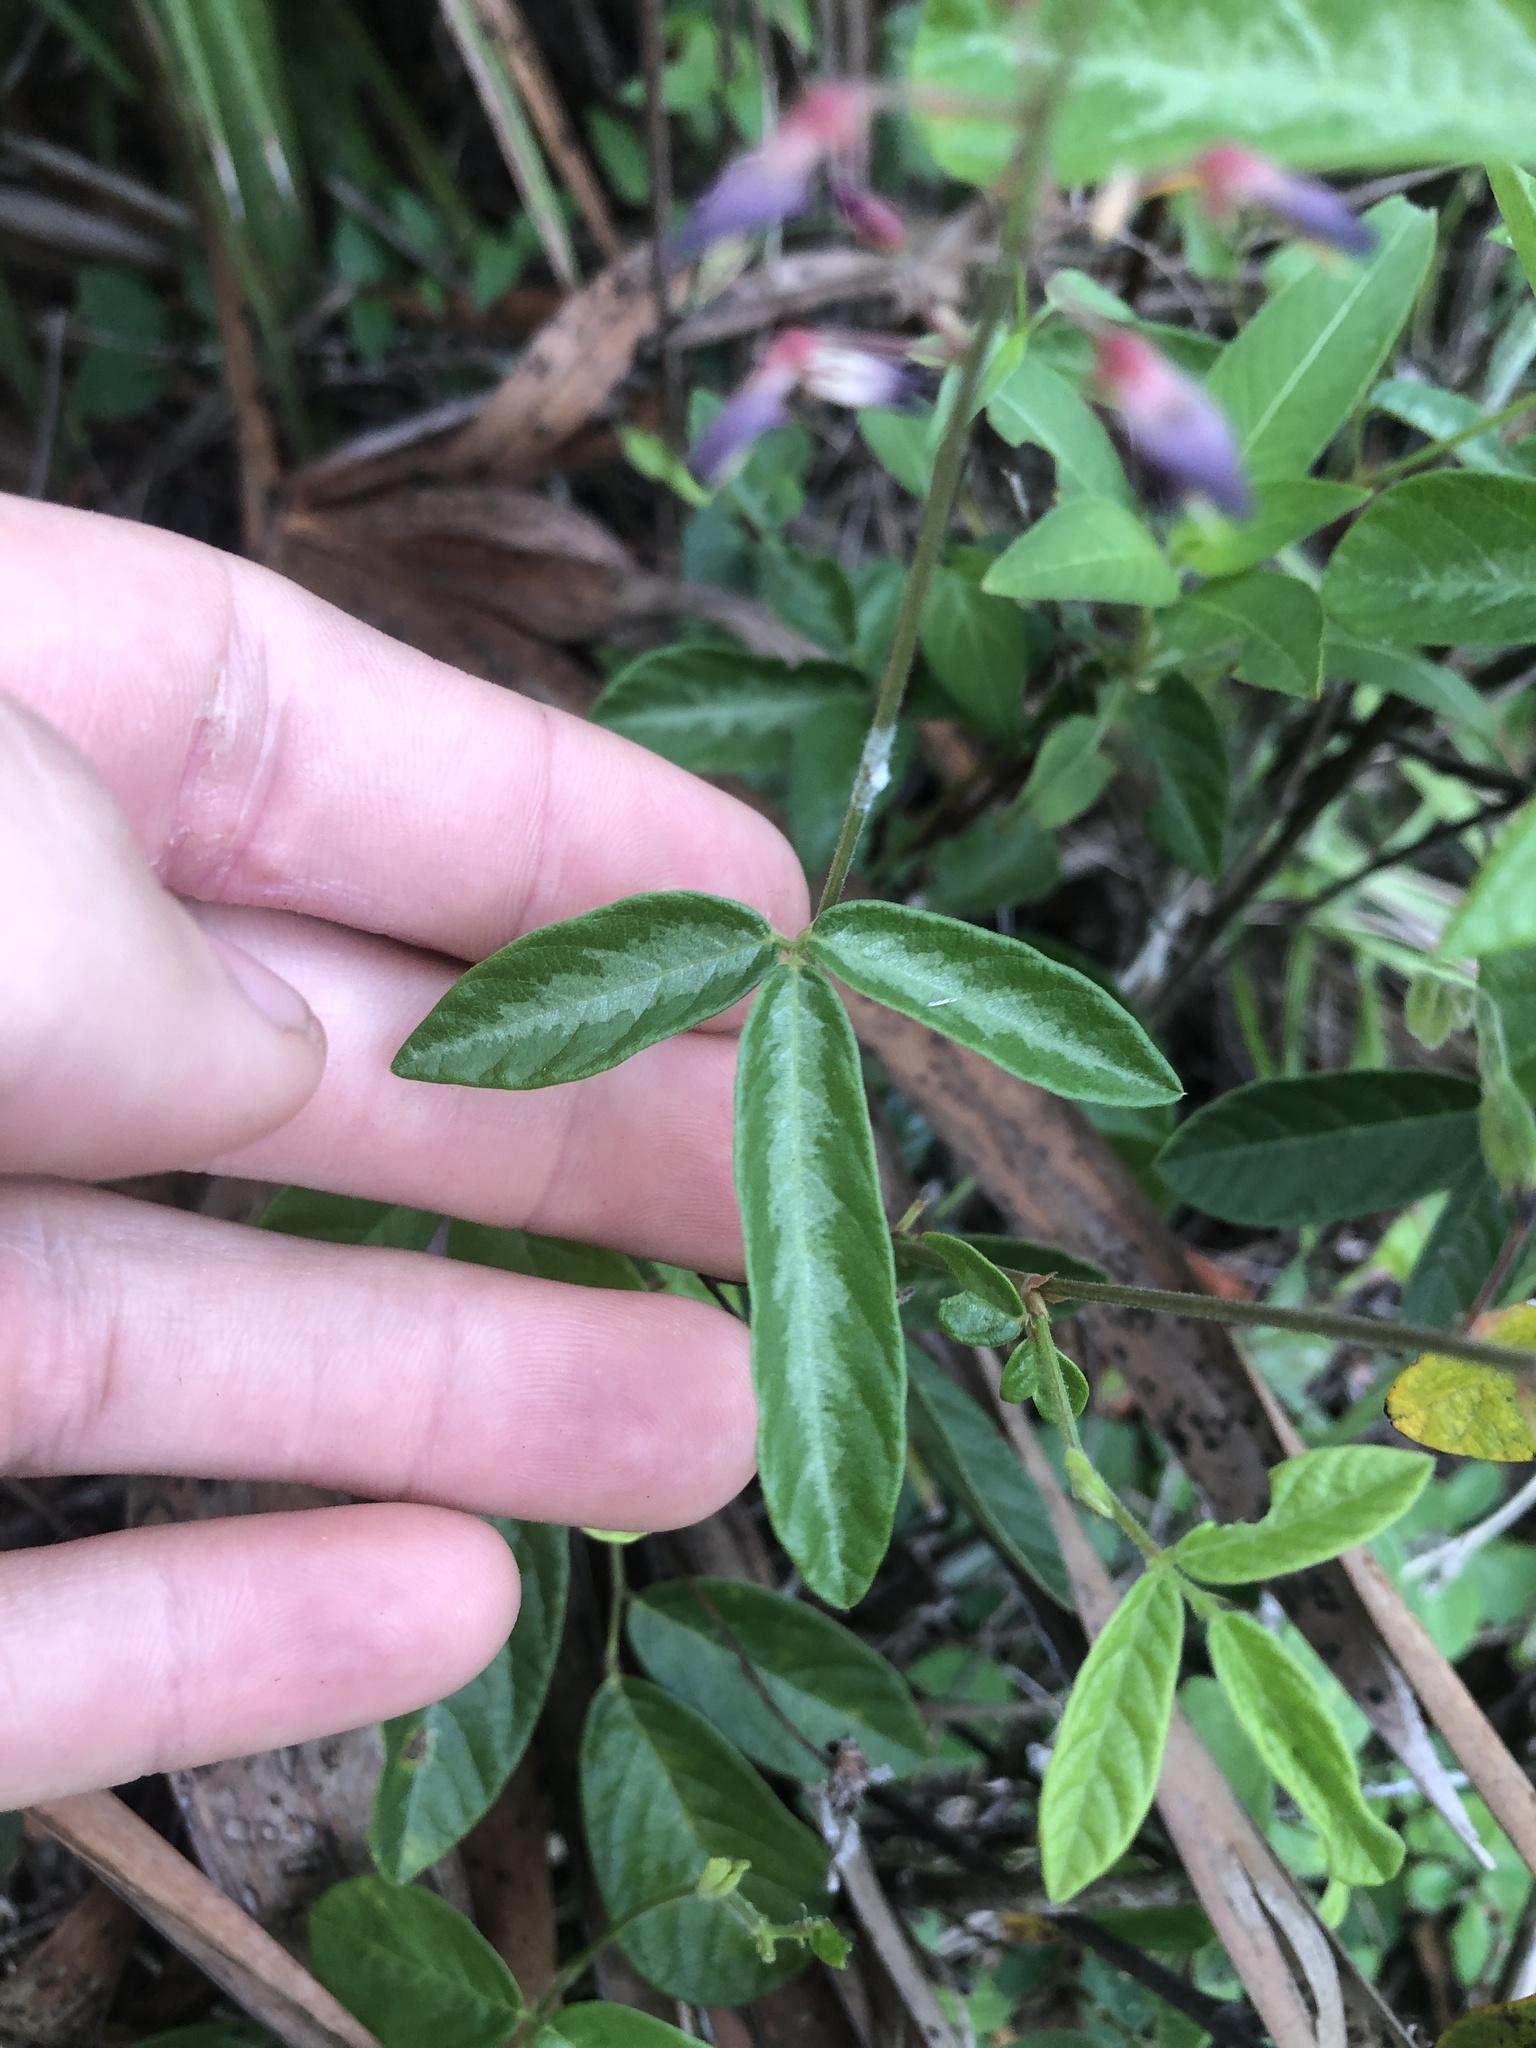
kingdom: Plantae
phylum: Tracheophyta
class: Magnoliopsida
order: Fabales
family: Fabaceae
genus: Desmodium
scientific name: Desmodium incanum
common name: Tickclover
